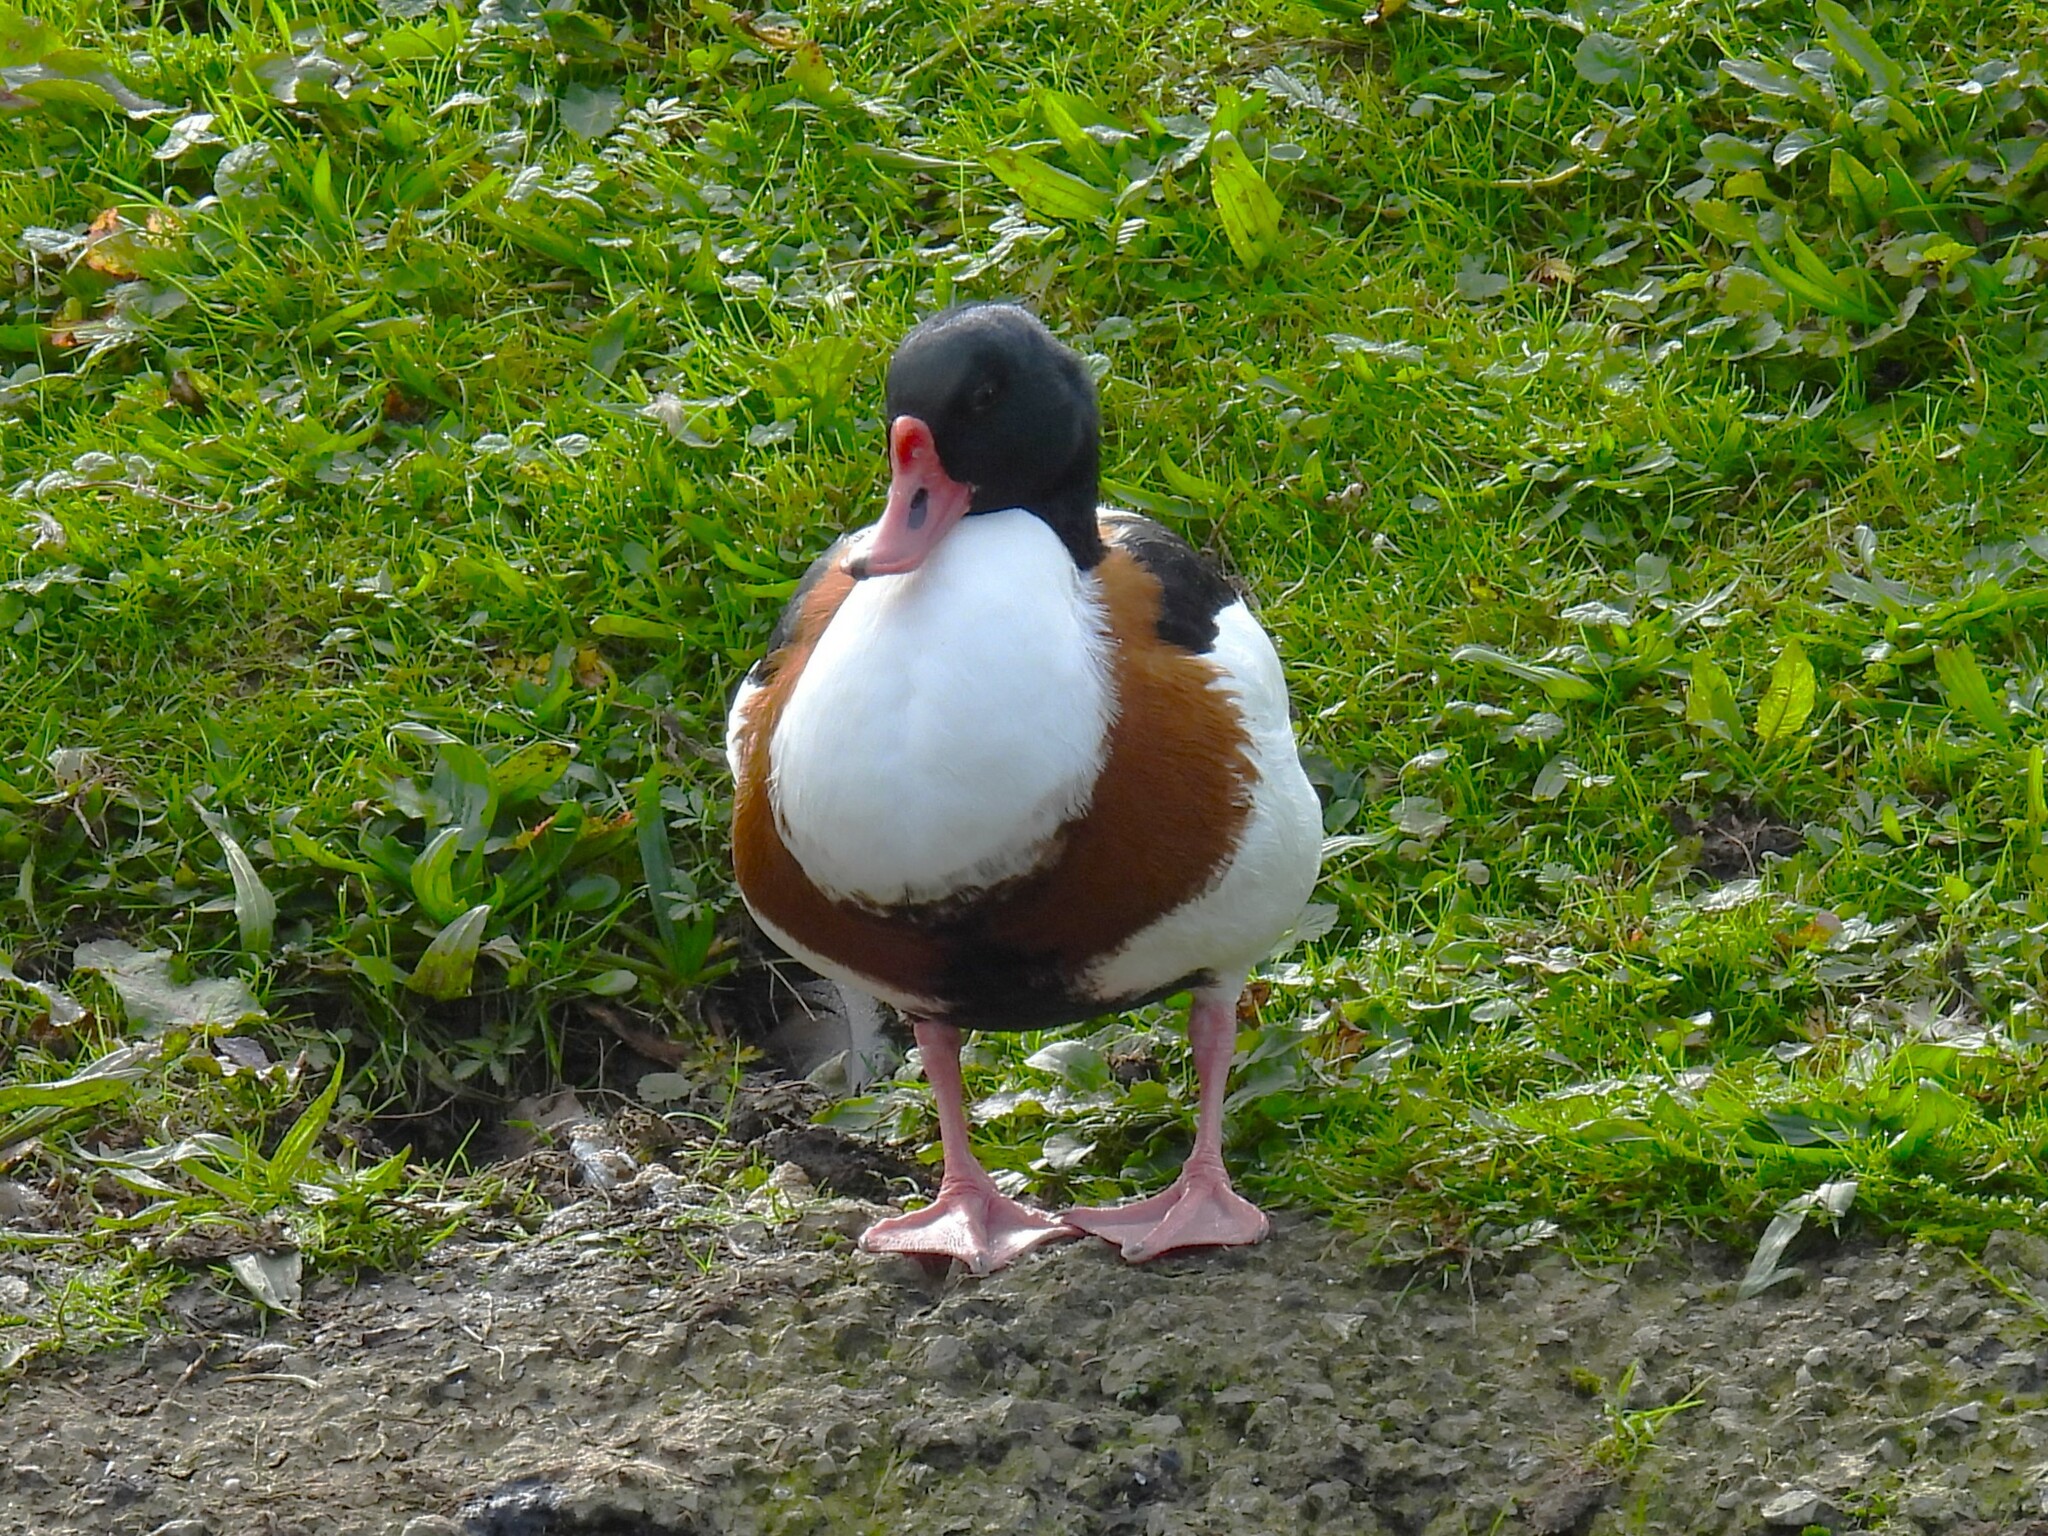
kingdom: Animalia
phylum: Chordata
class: Aves
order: Anseriformes
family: Anatidae
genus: Tadorna
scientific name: Tadorna tadorna
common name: Common shelduck
